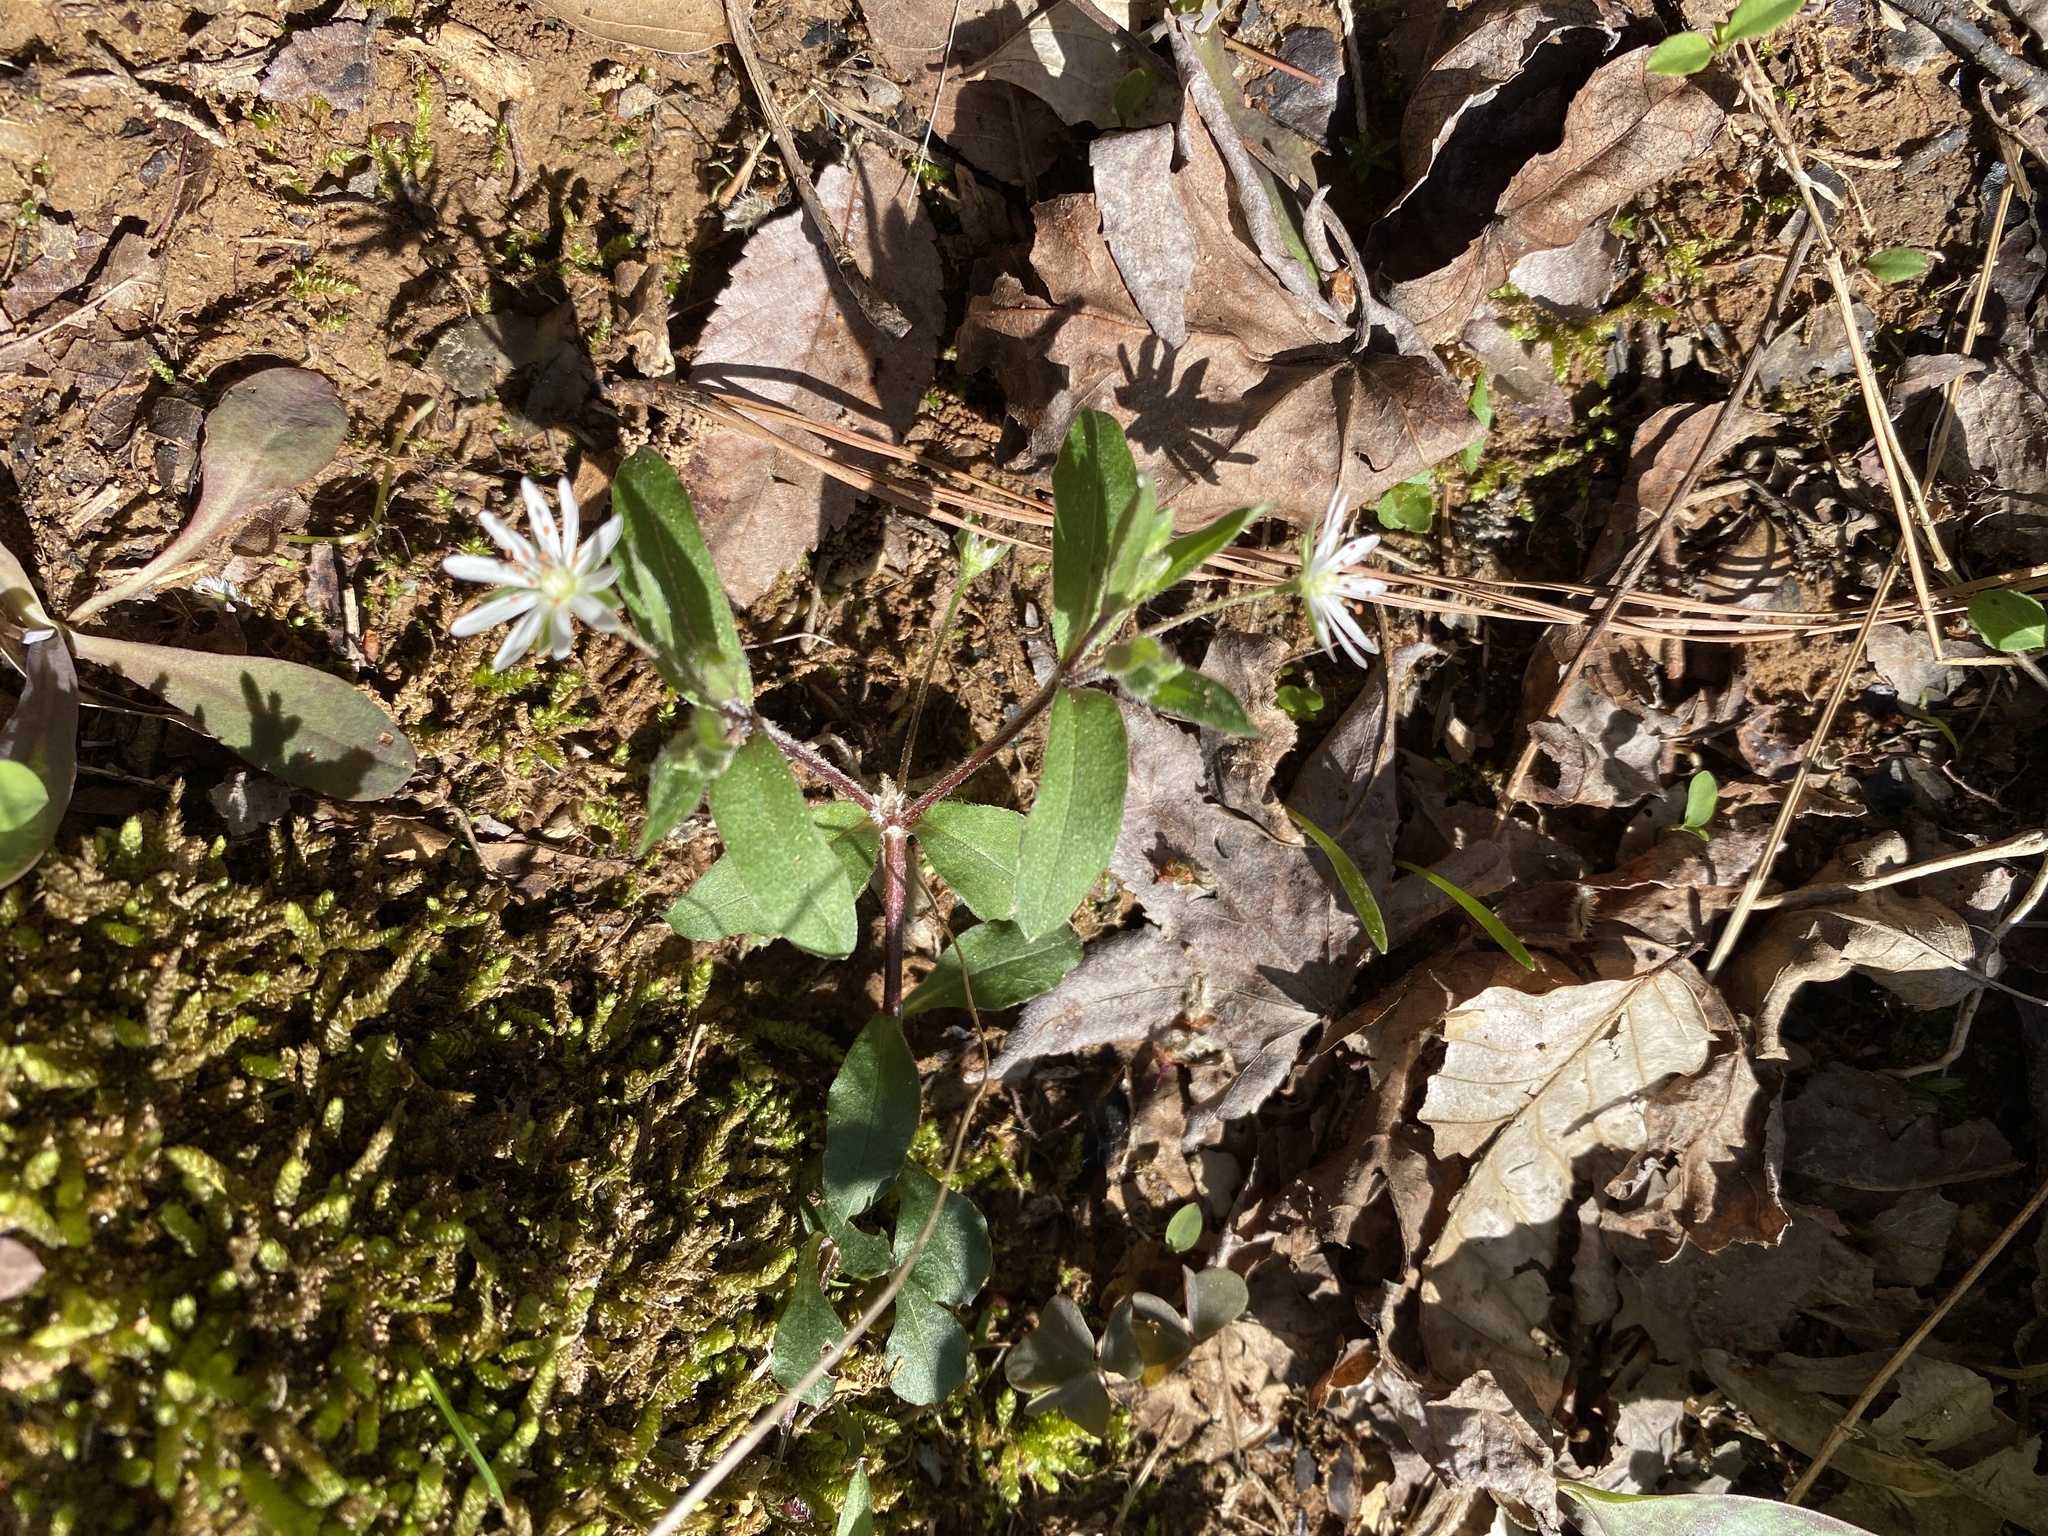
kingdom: Plantae
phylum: Tracheophyta
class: Magnoliopsida
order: Caryophyllales
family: Caryophyllaceae
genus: Stellaria
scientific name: Stellaria pubera
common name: Star chickweed
